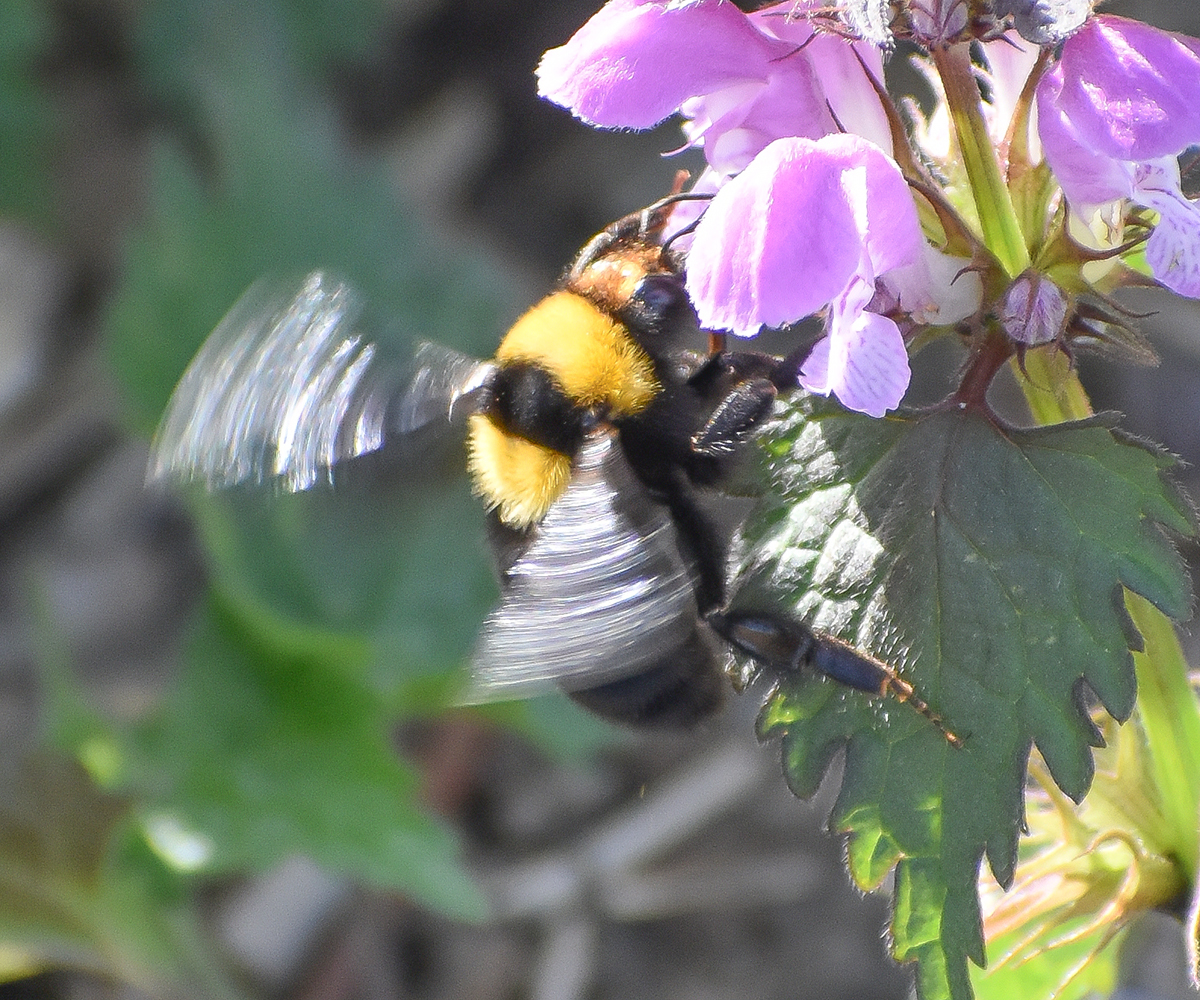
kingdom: Animalia
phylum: Arthropoda
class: Insecta
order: Hymenoptera
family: Apidae
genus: Bombus
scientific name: Bombus argillaceus
